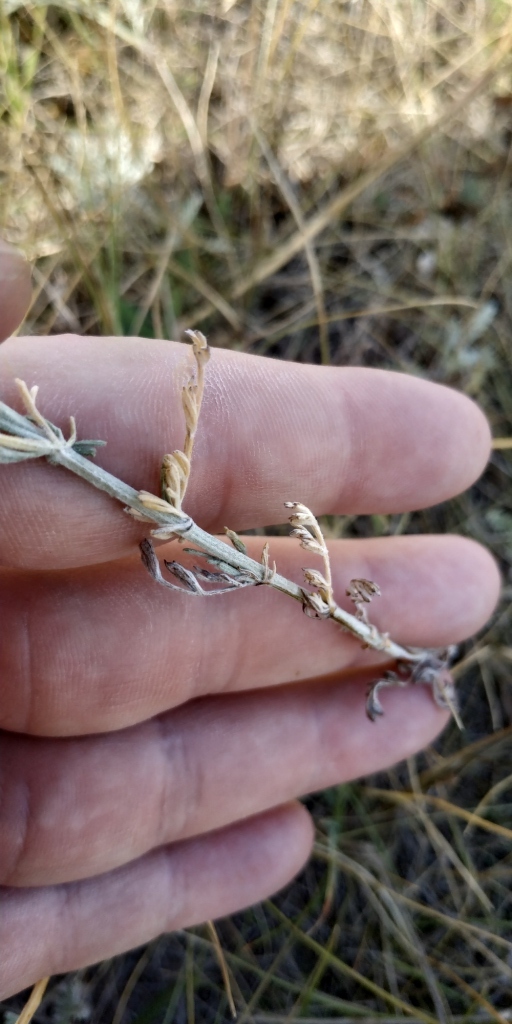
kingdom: Plantae
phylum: Tracheophyta
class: Magnoliopsida
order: Asterales
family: Asteraceae
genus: Artemisia
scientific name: Artemisia nitrosa
